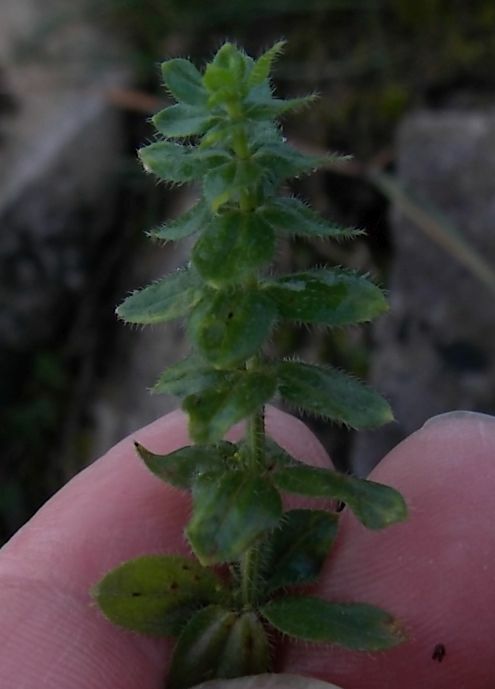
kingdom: Plantae
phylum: Tracheophyta
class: Magnoliopsida
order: Gentianales
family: Rubiaceae
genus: Cruciata
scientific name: Cruciata laevipes
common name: Crosswort
